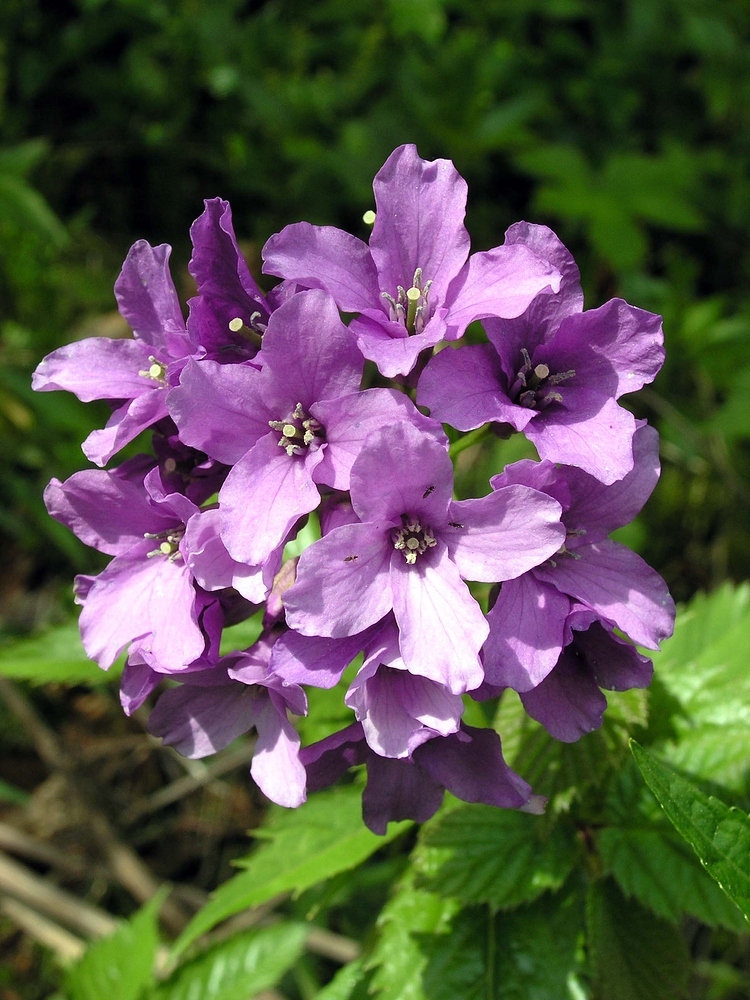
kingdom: Plantae
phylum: Tracheophyta
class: Magnoliopsida
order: Brassicales
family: Brassicaceae
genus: Cardamine
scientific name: Cardamine pentaphyllos
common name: Five-leaflet bitter-cress
